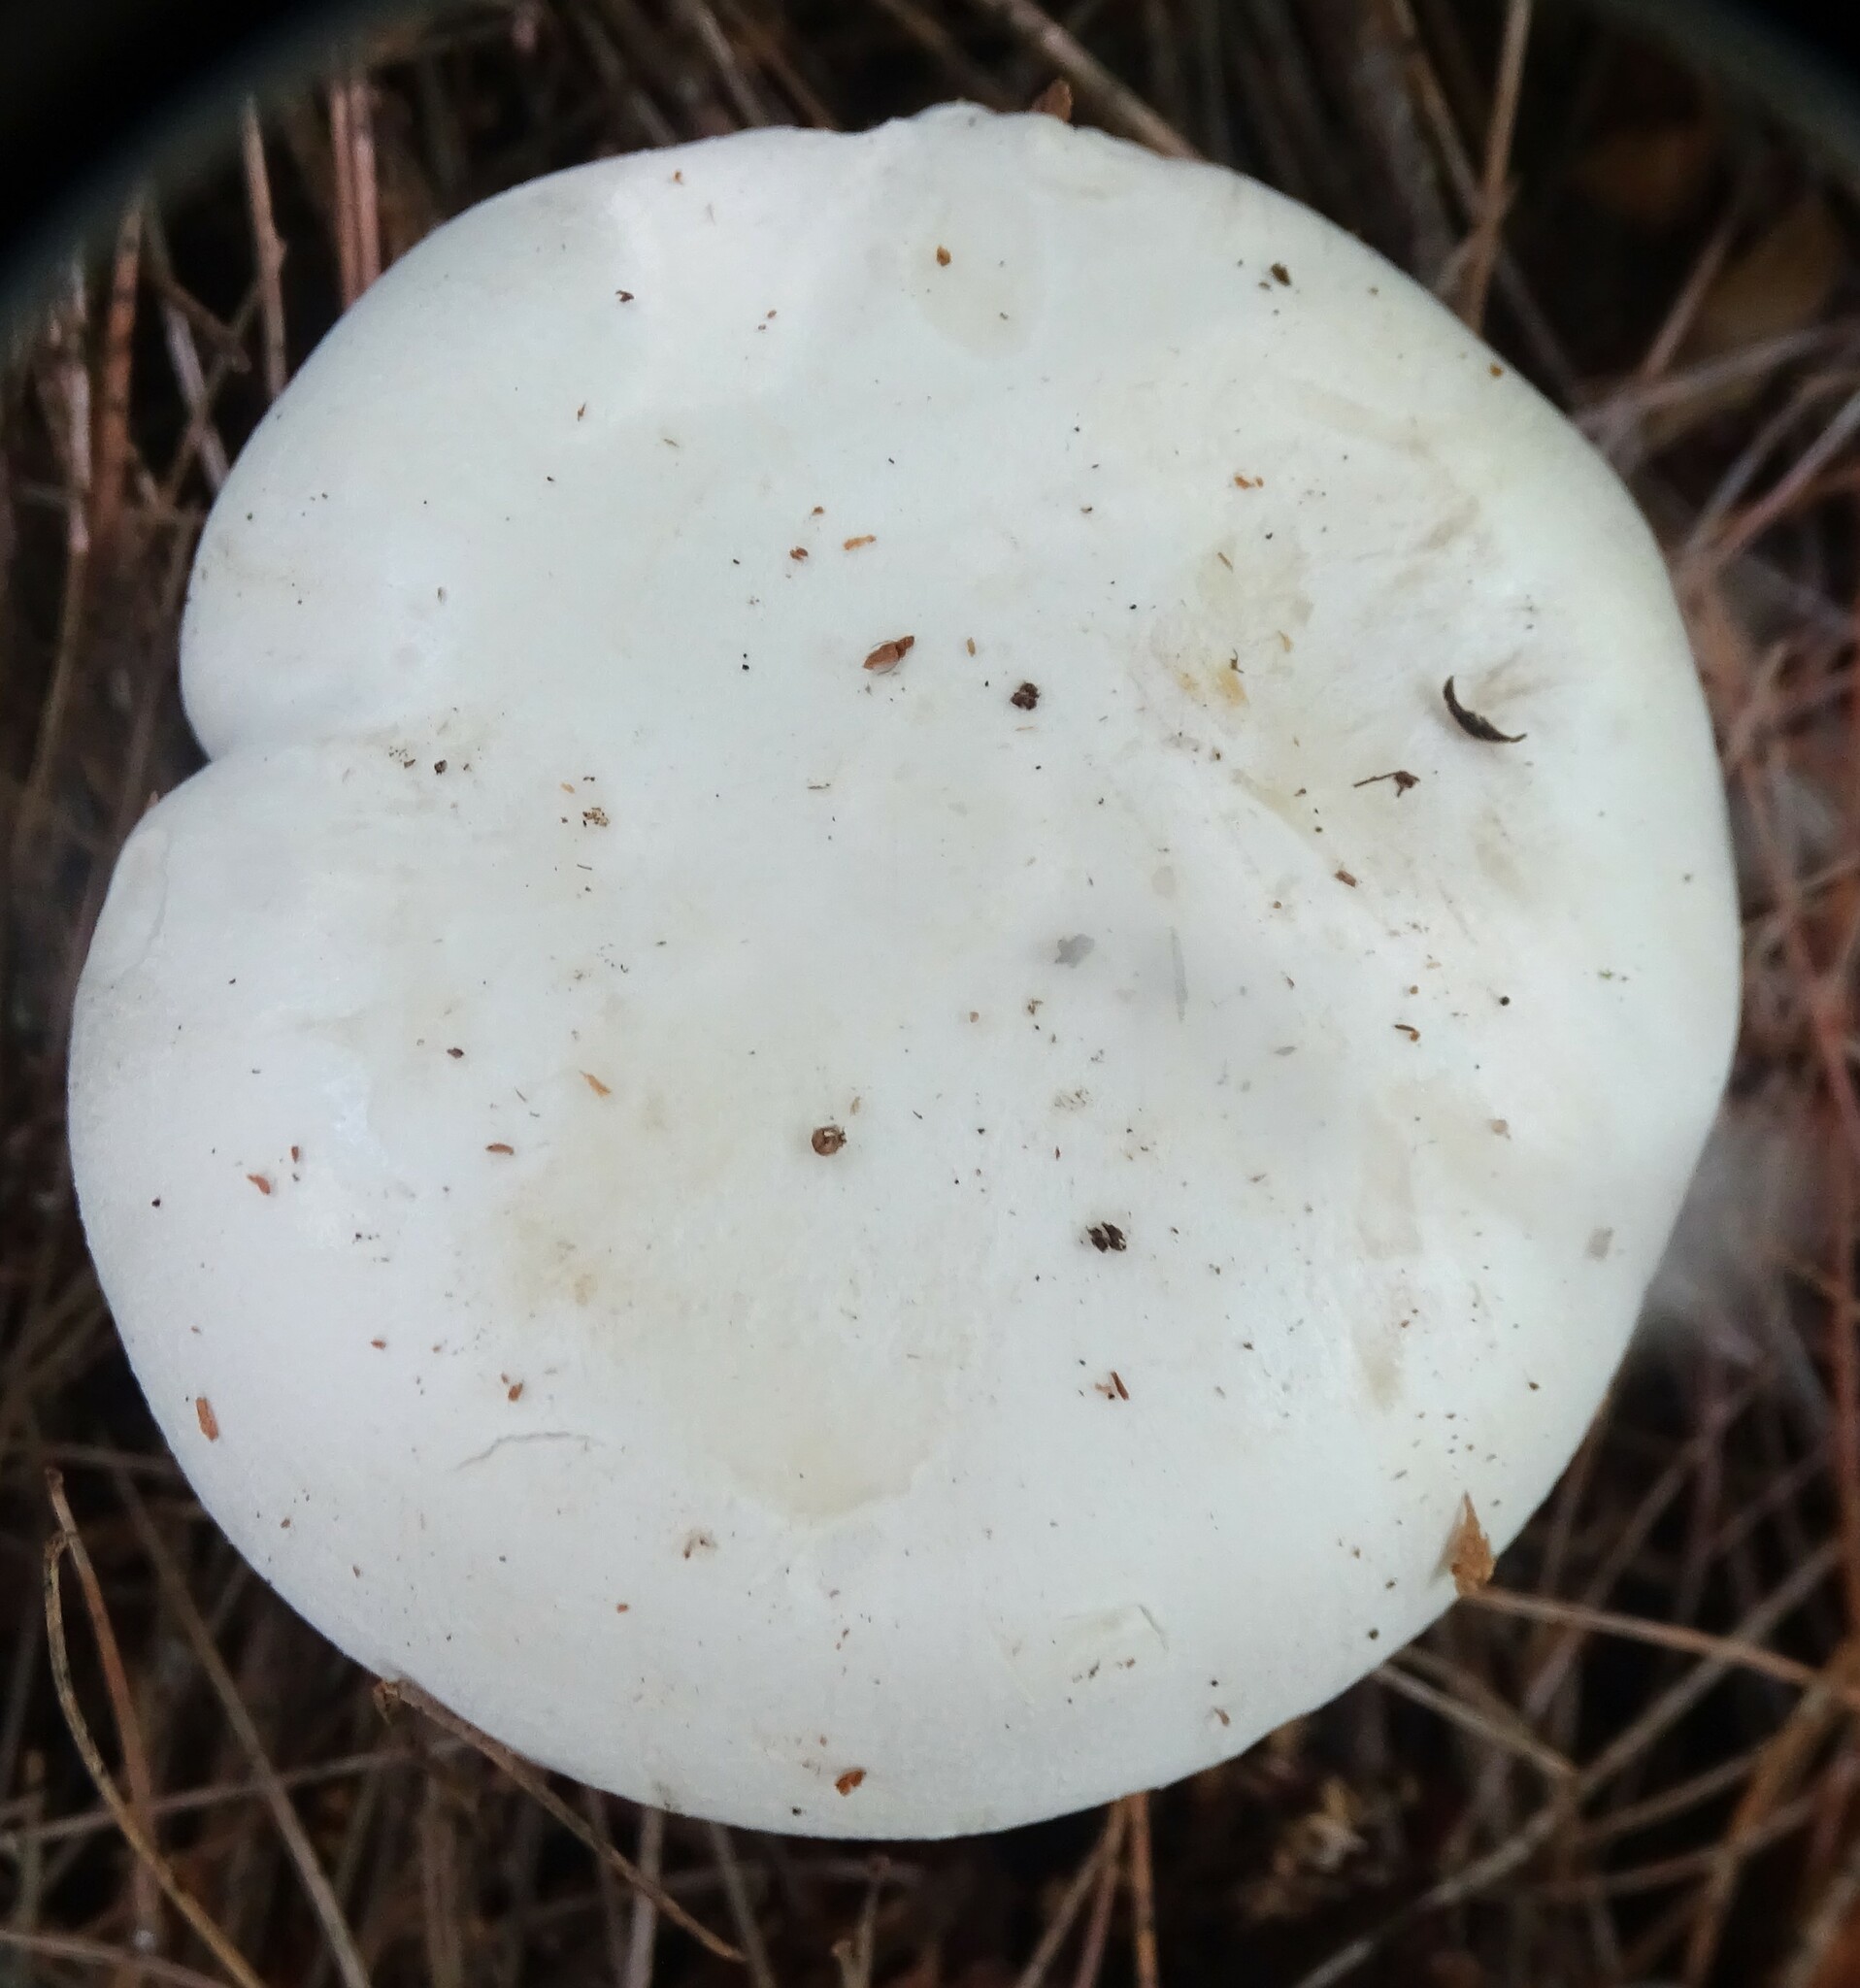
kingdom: Fungi
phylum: Basidiomycota
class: Agaricomycetes
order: Agaricales
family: Tricholomataceae
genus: Clitocybe
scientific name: Clitocybe robusta
